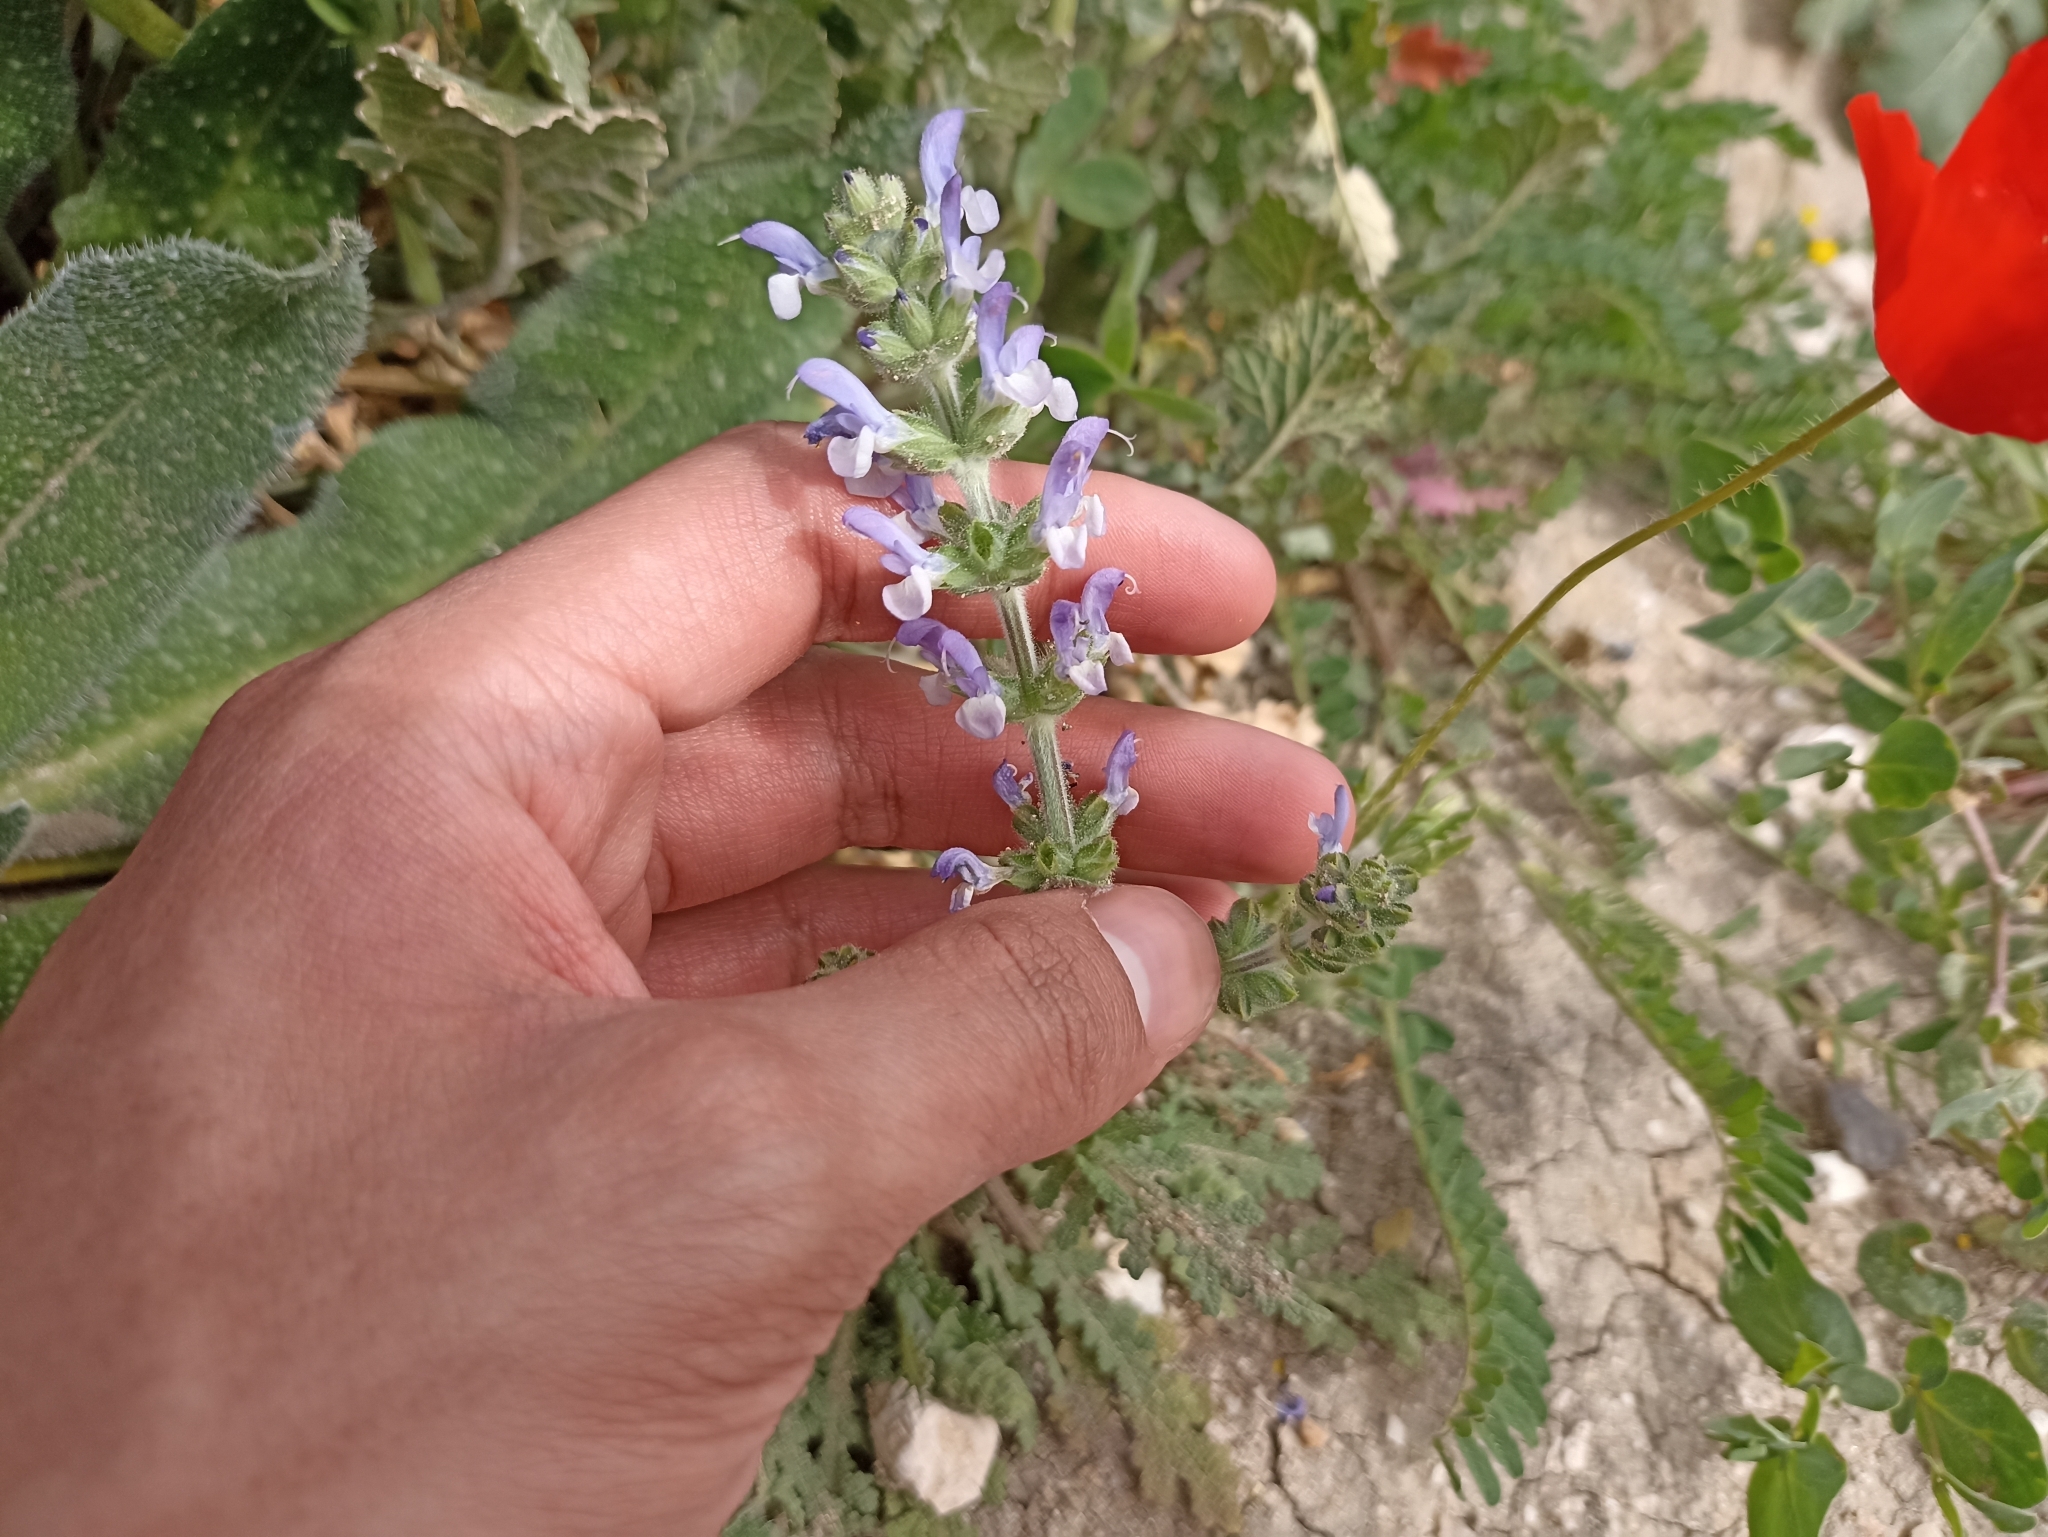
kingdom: Plantae
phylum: Tracheophyta
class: Magnoliopsida
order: Lamiales
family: Lamiaceae
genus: Salvia
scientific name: Salvia verbenaca
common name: Wild clary
